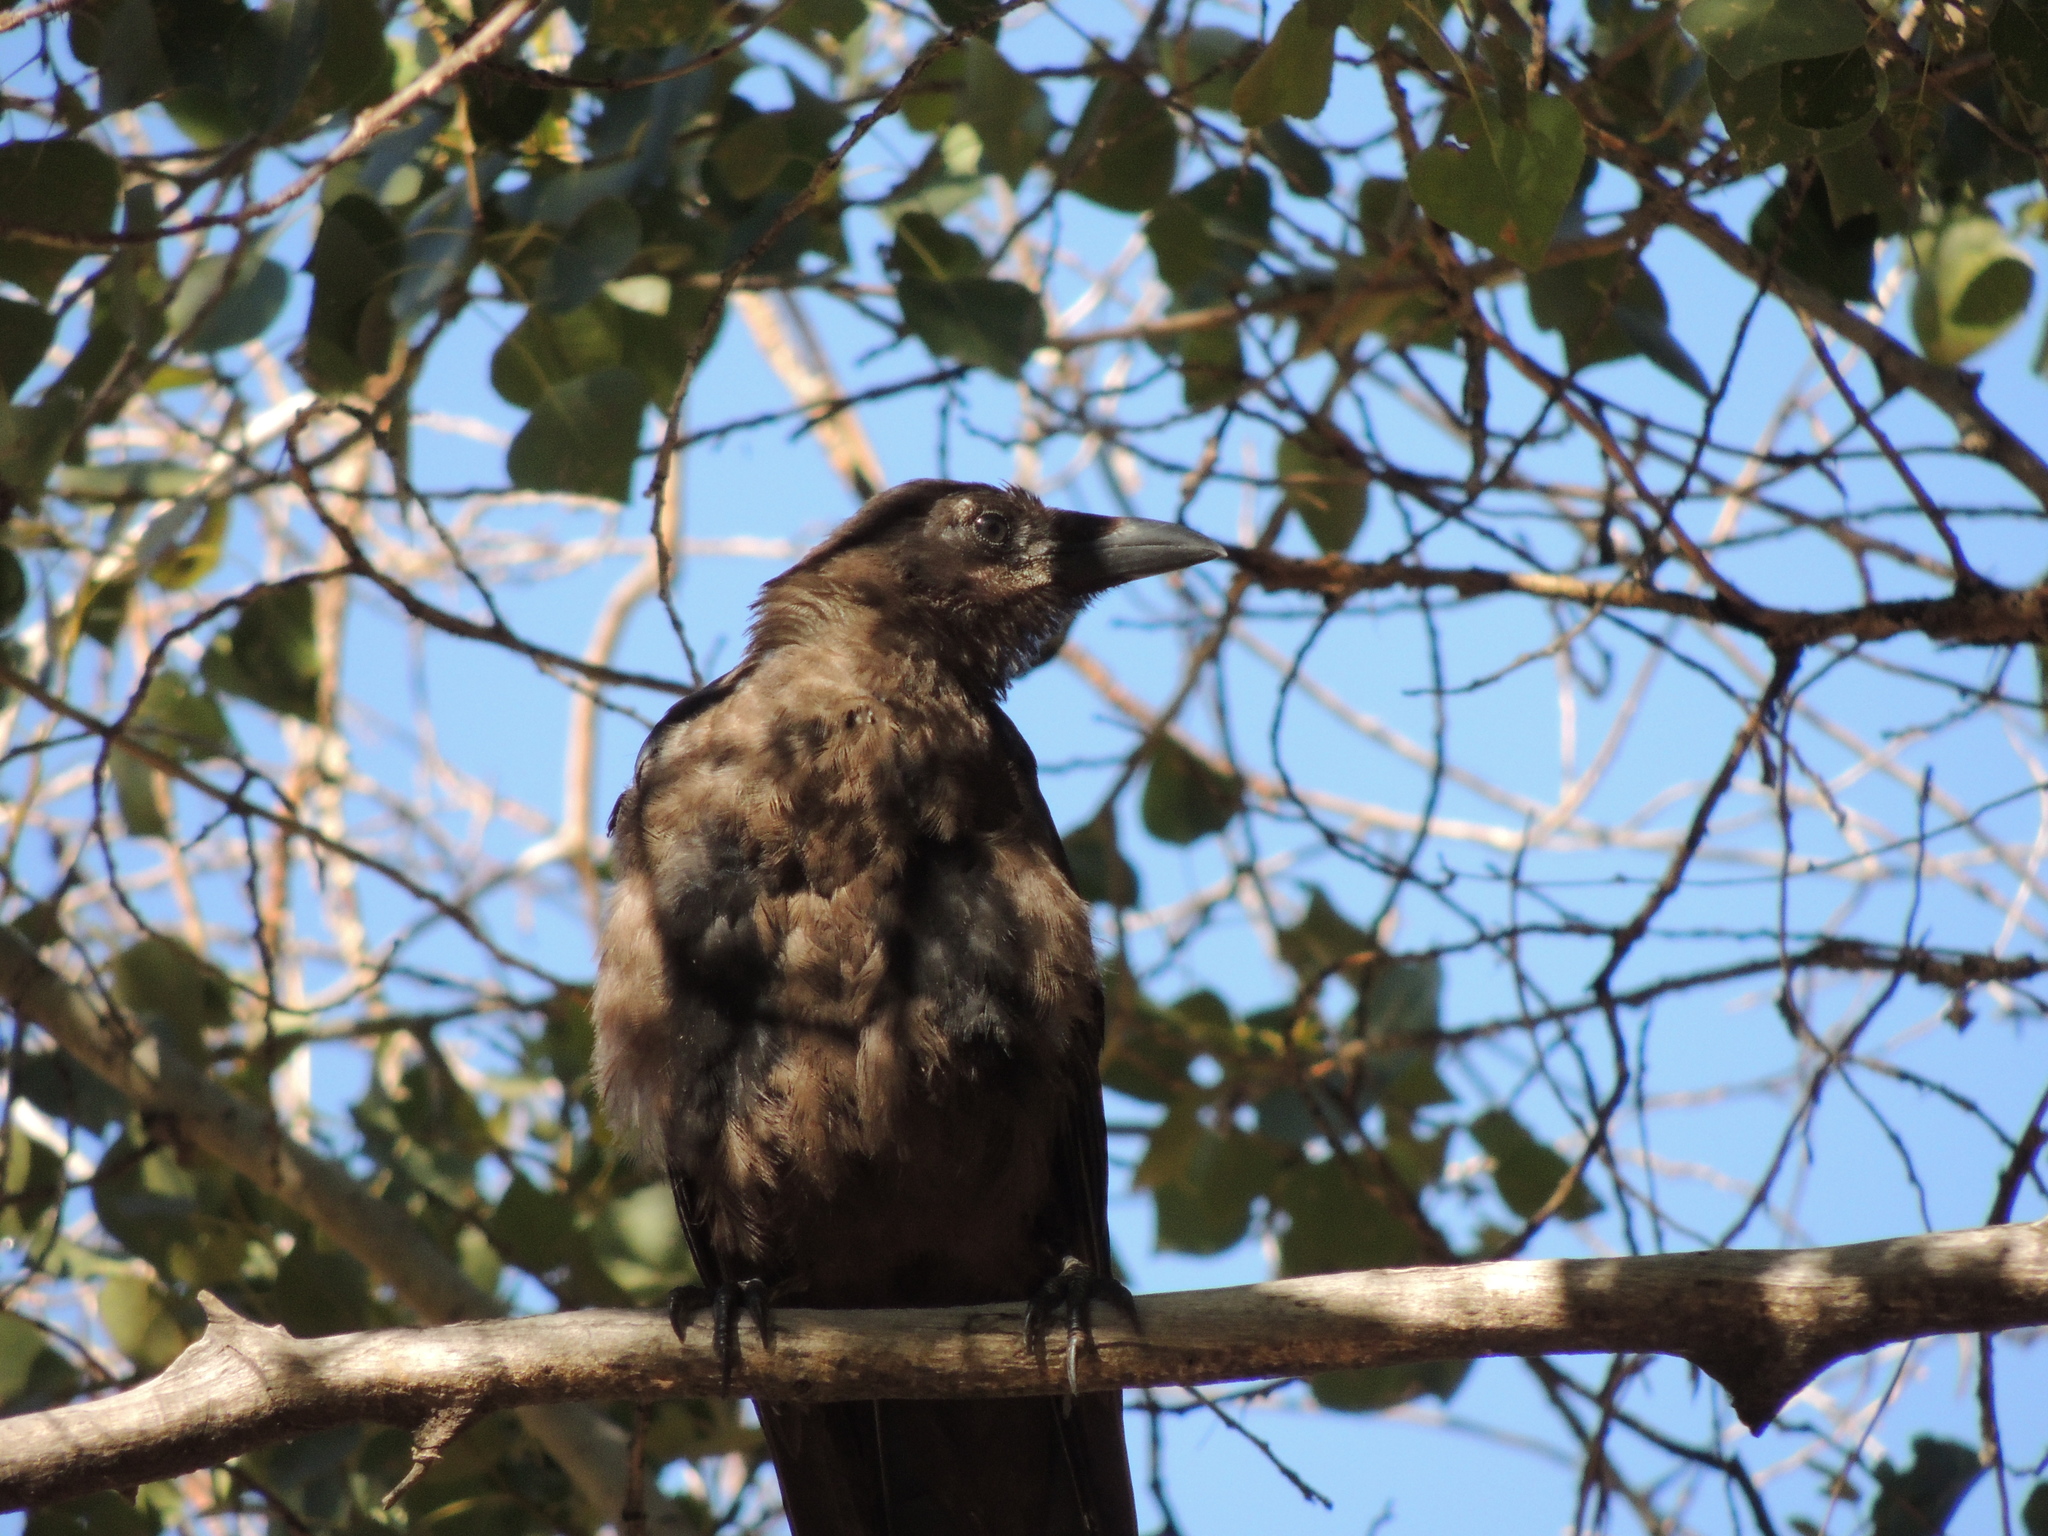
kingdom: Animalia
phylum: Chordata
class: Aves
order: Passeriformes
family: Corvidae
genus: Corvus
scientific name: Corvus corone
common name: Carrion crow
